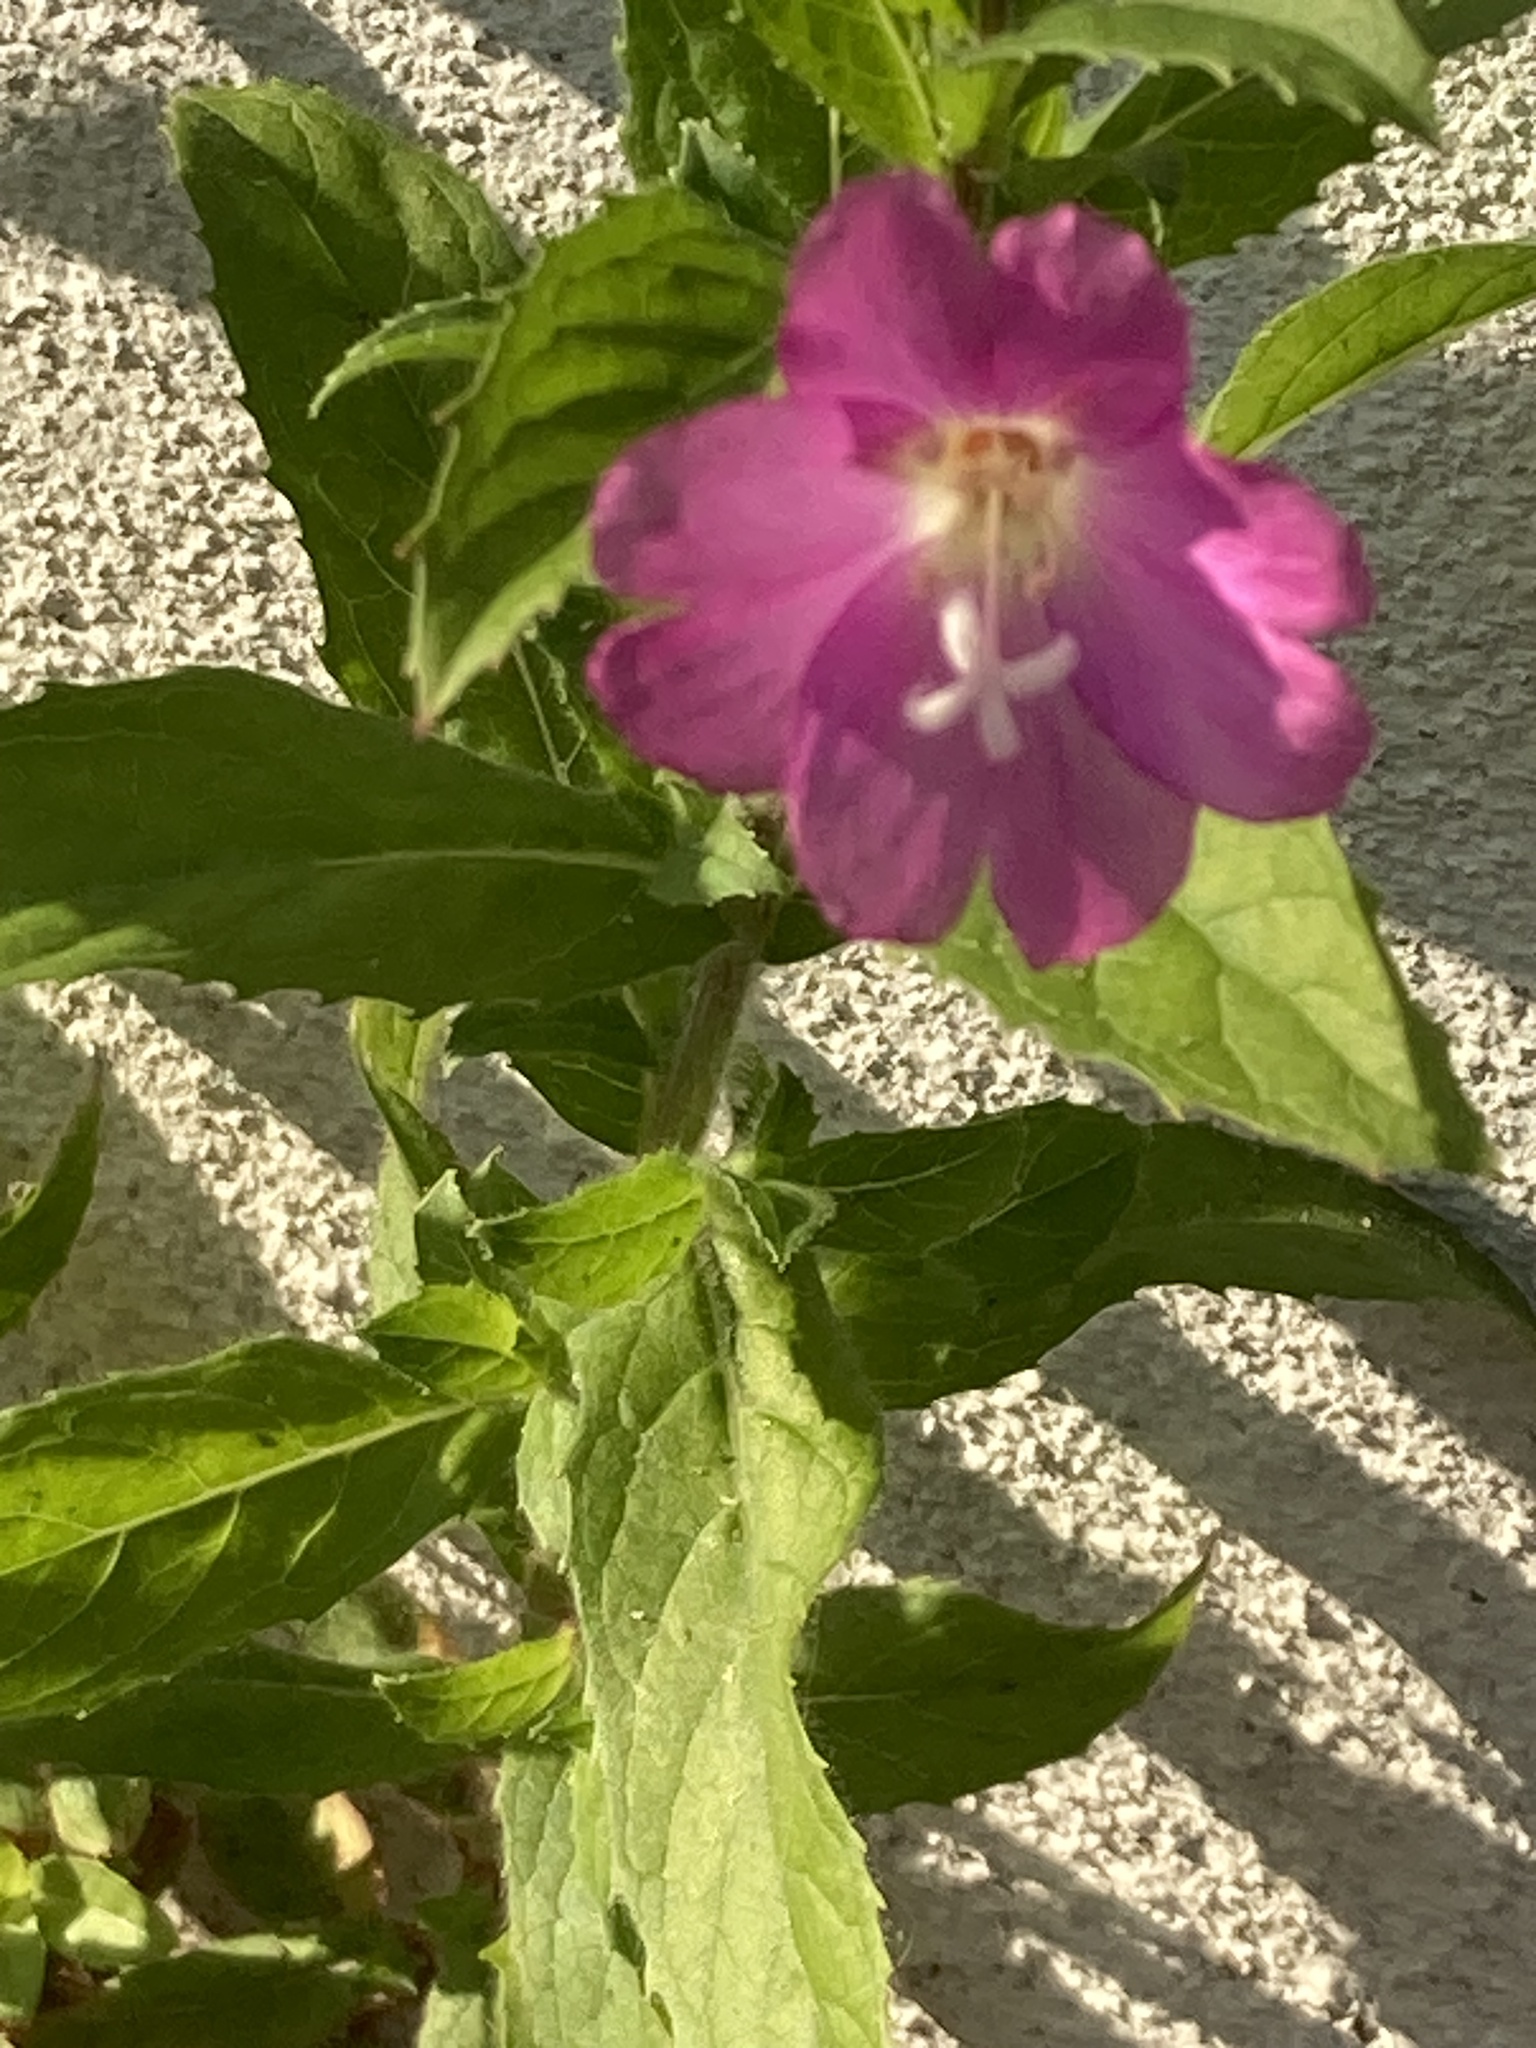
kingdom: Plantae
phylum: Tracheophyta
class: Magnoliopsida
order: Myrtales
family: Onagraceae
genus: Epilobium
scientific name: Epilobium hirsutum
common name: Great willowherb
